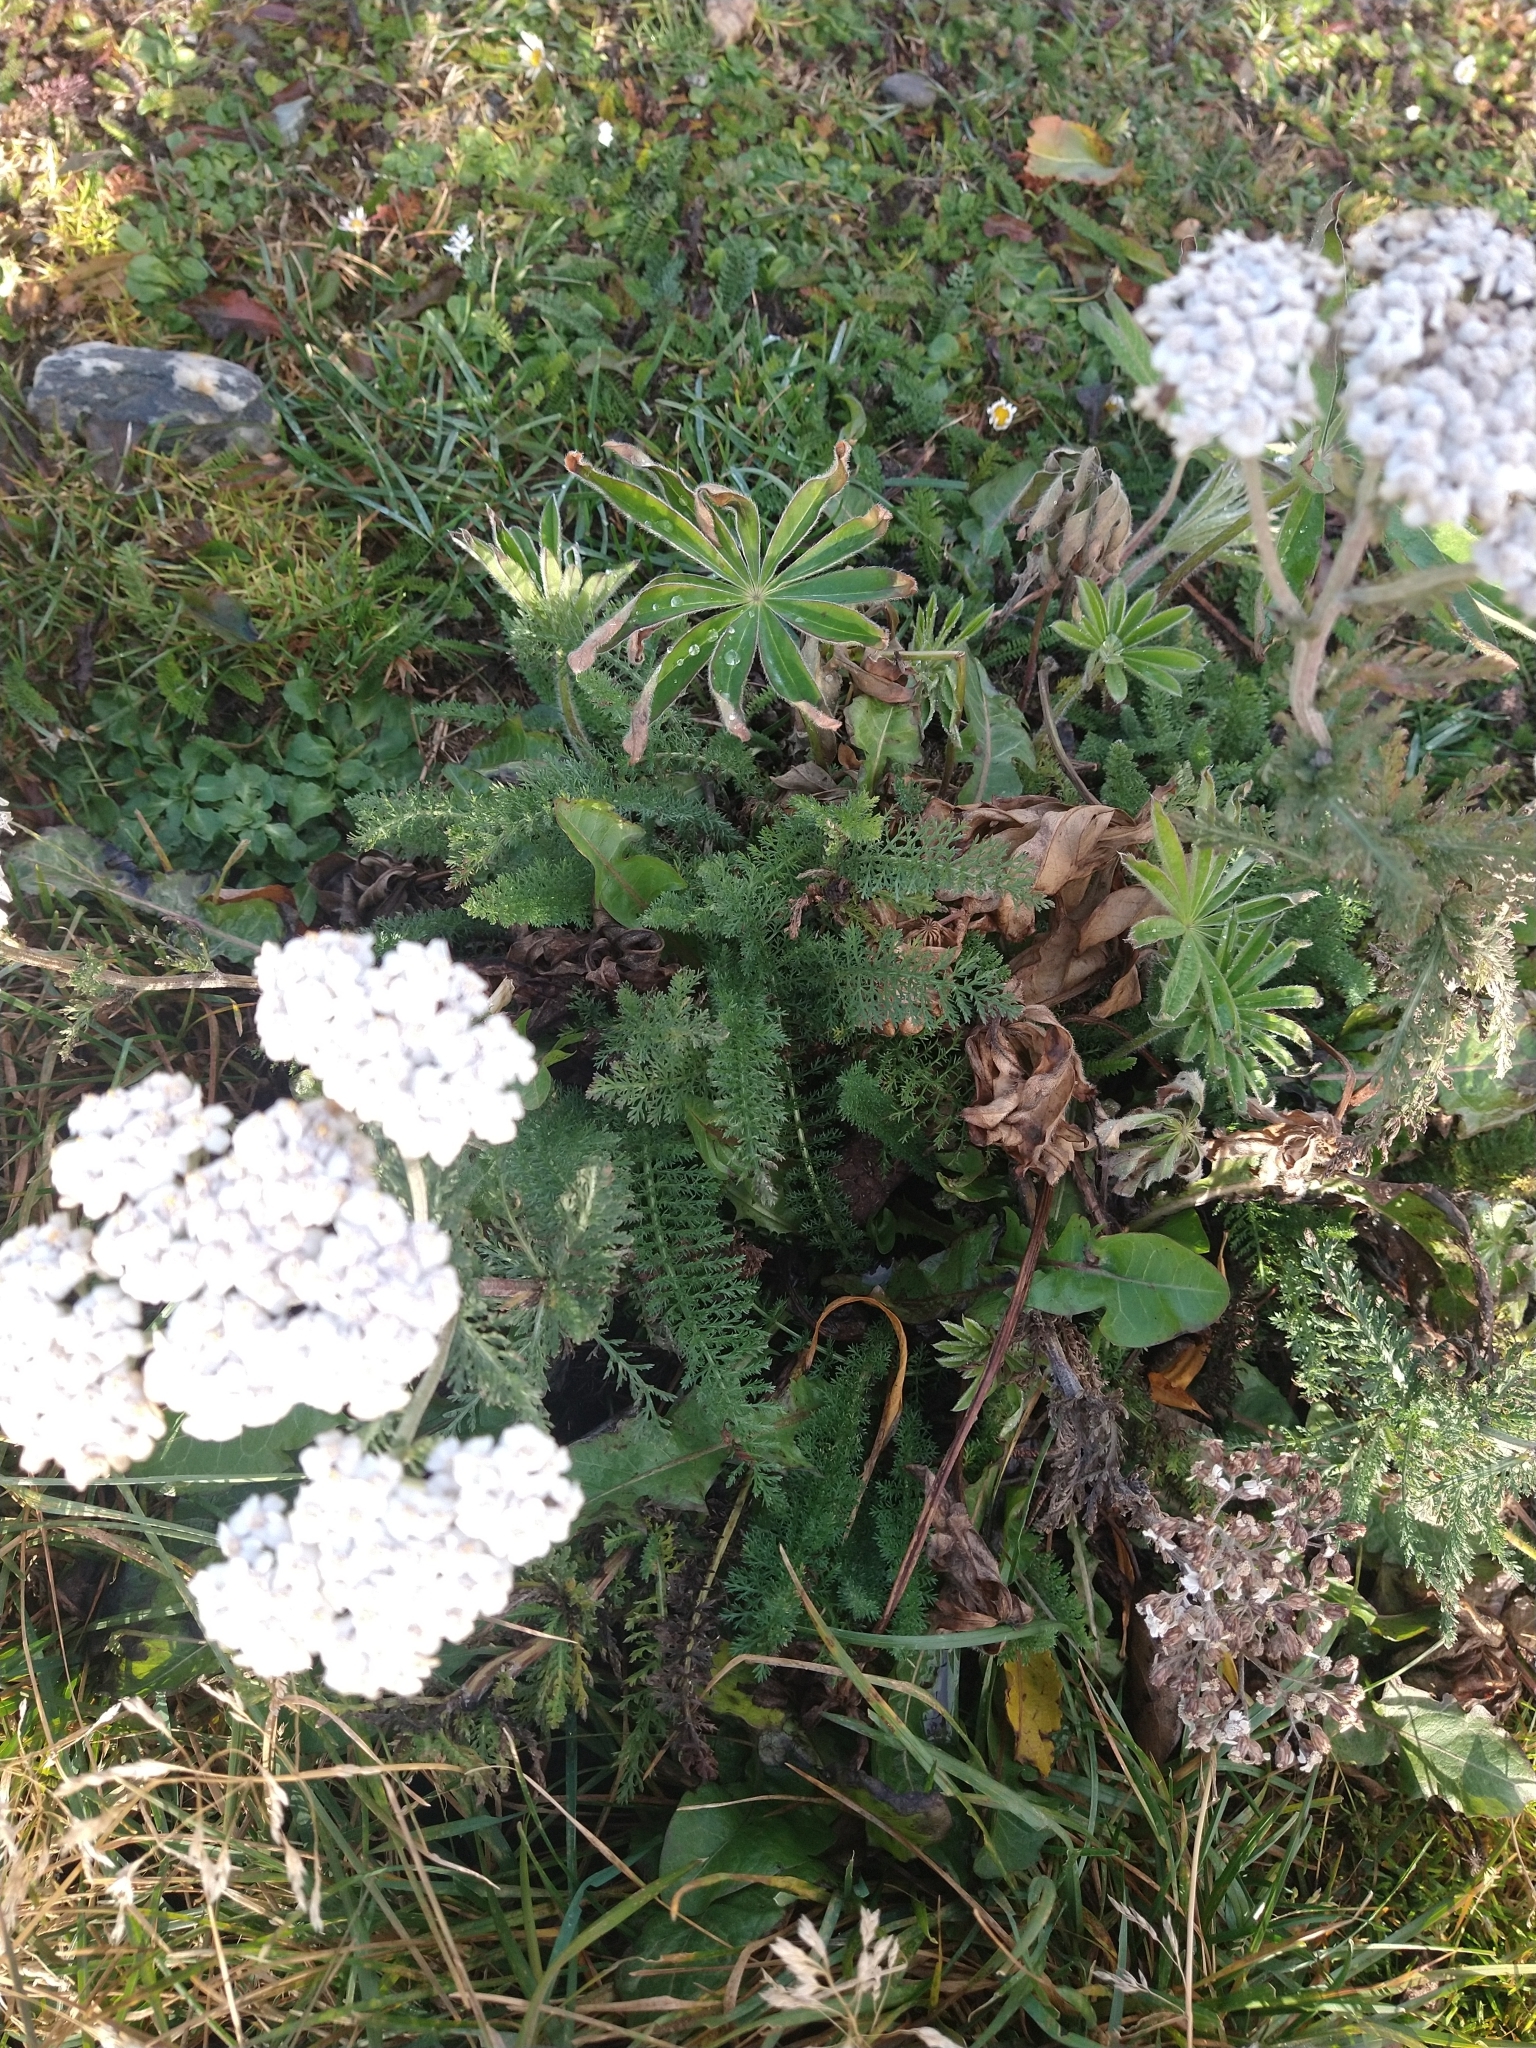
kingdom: Plantae
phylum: Tracheophyta
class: Magnoliopsida
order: Asterales
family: Asteraceae
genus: Achillea
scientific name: Achillea millefolium
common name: Yarrow
